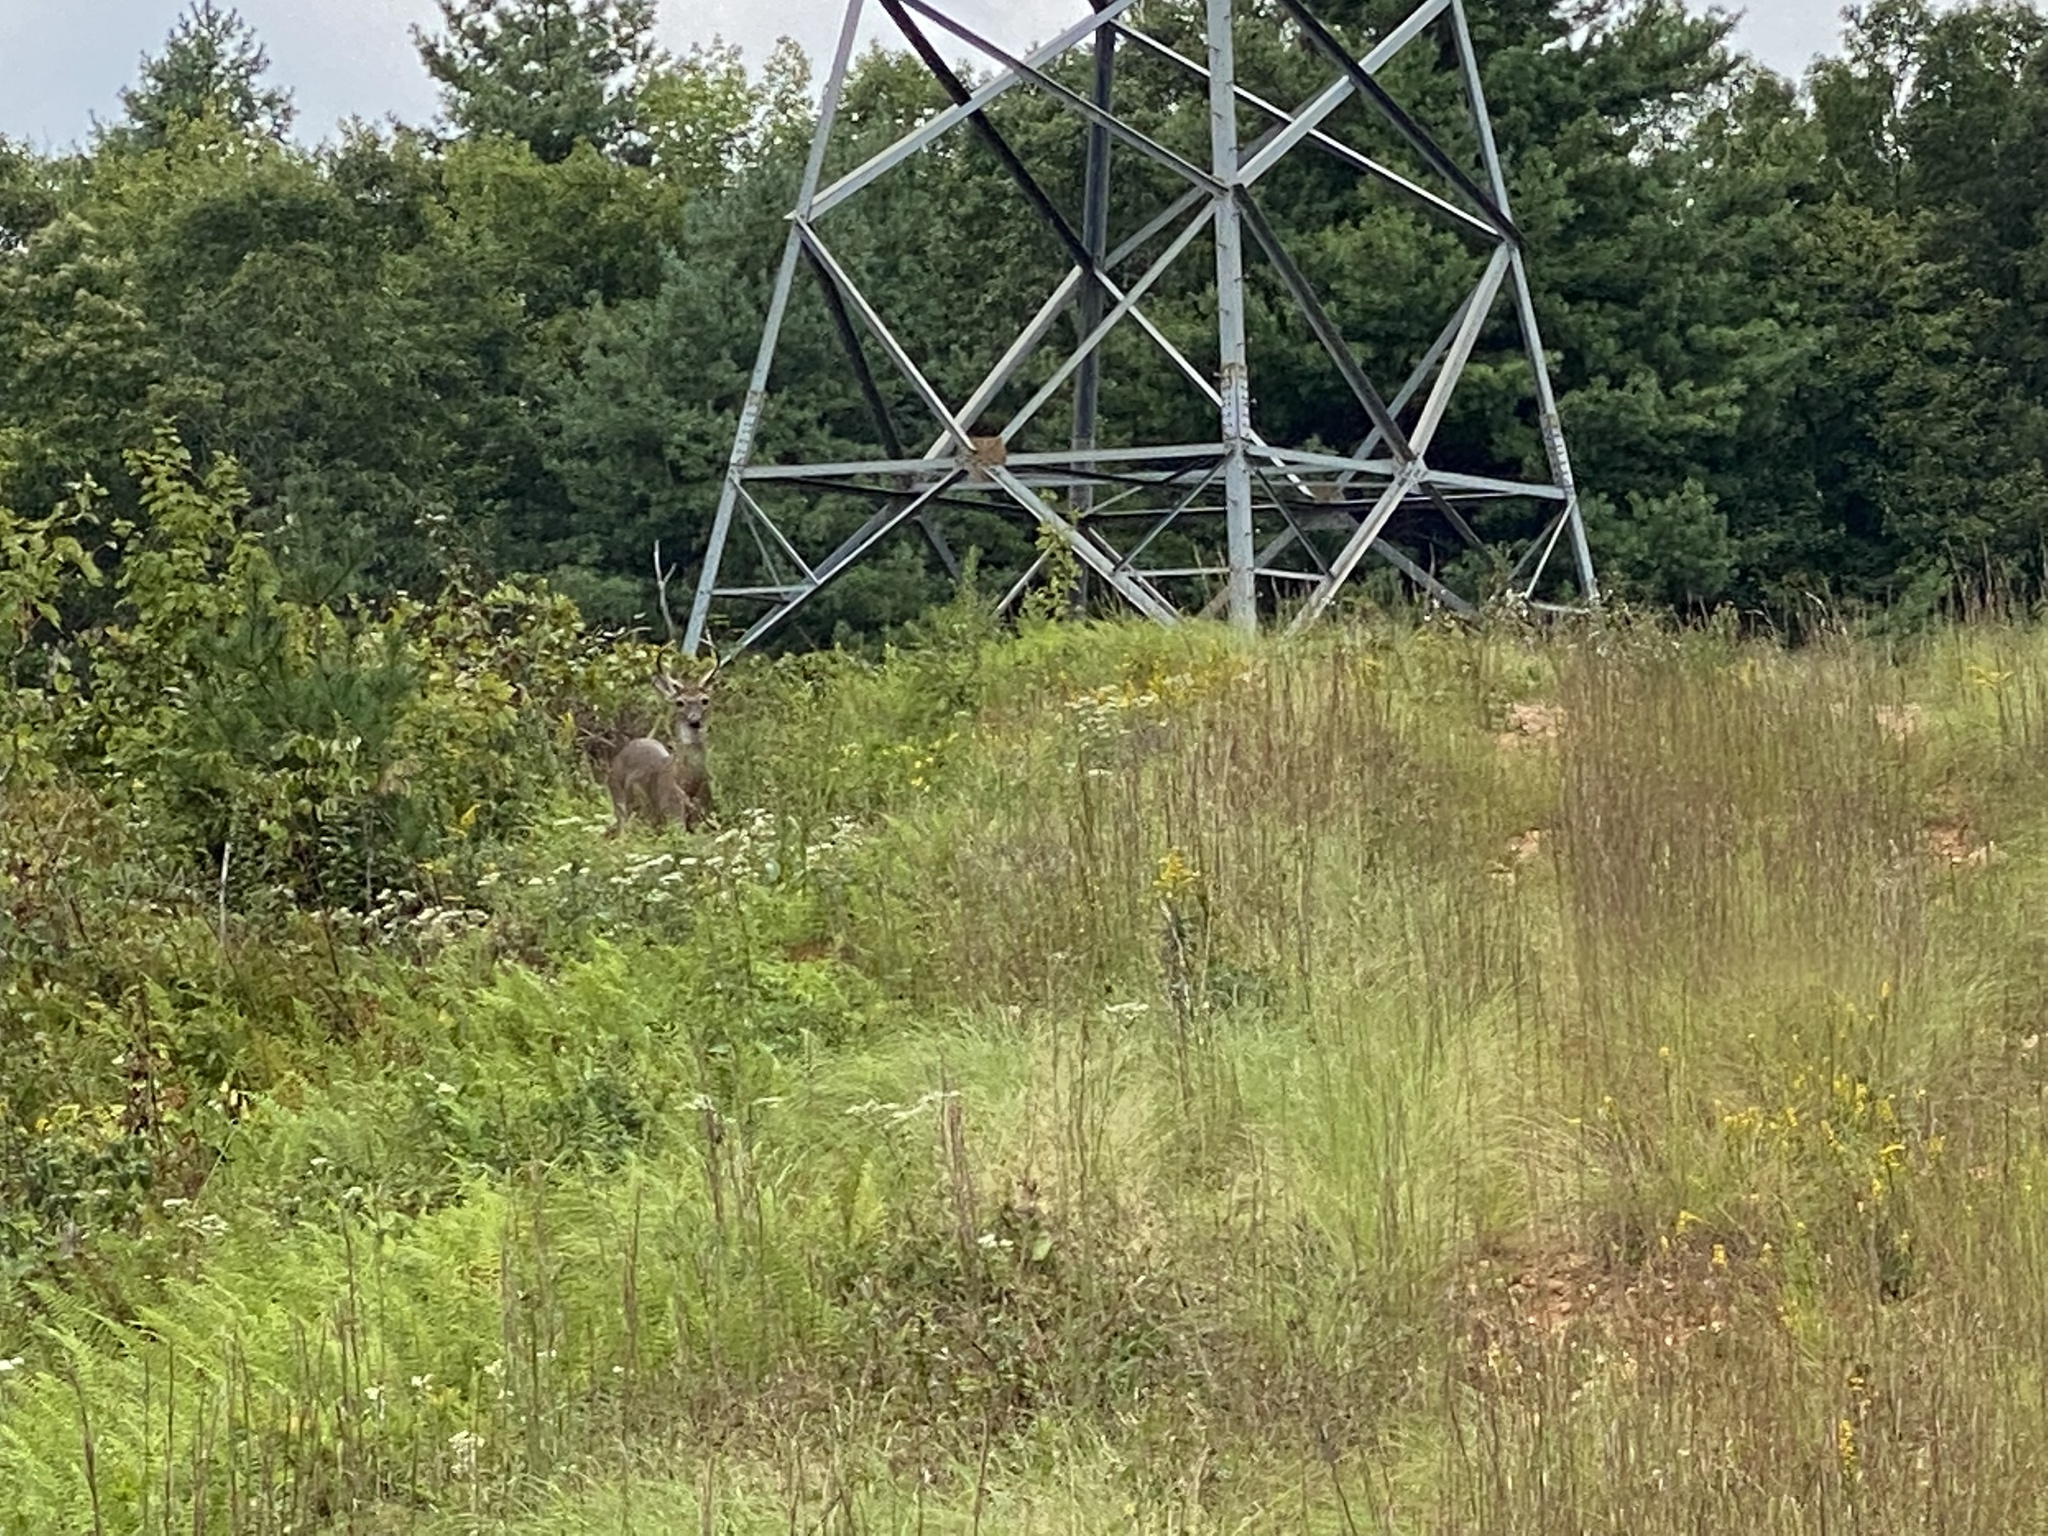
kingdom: Animalia
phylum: Chordata
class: Mammalia
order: Artiodactyla
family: Cervidae
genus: Odocoileus
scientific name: Odocoileus virginianus
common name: White-tailed deer
